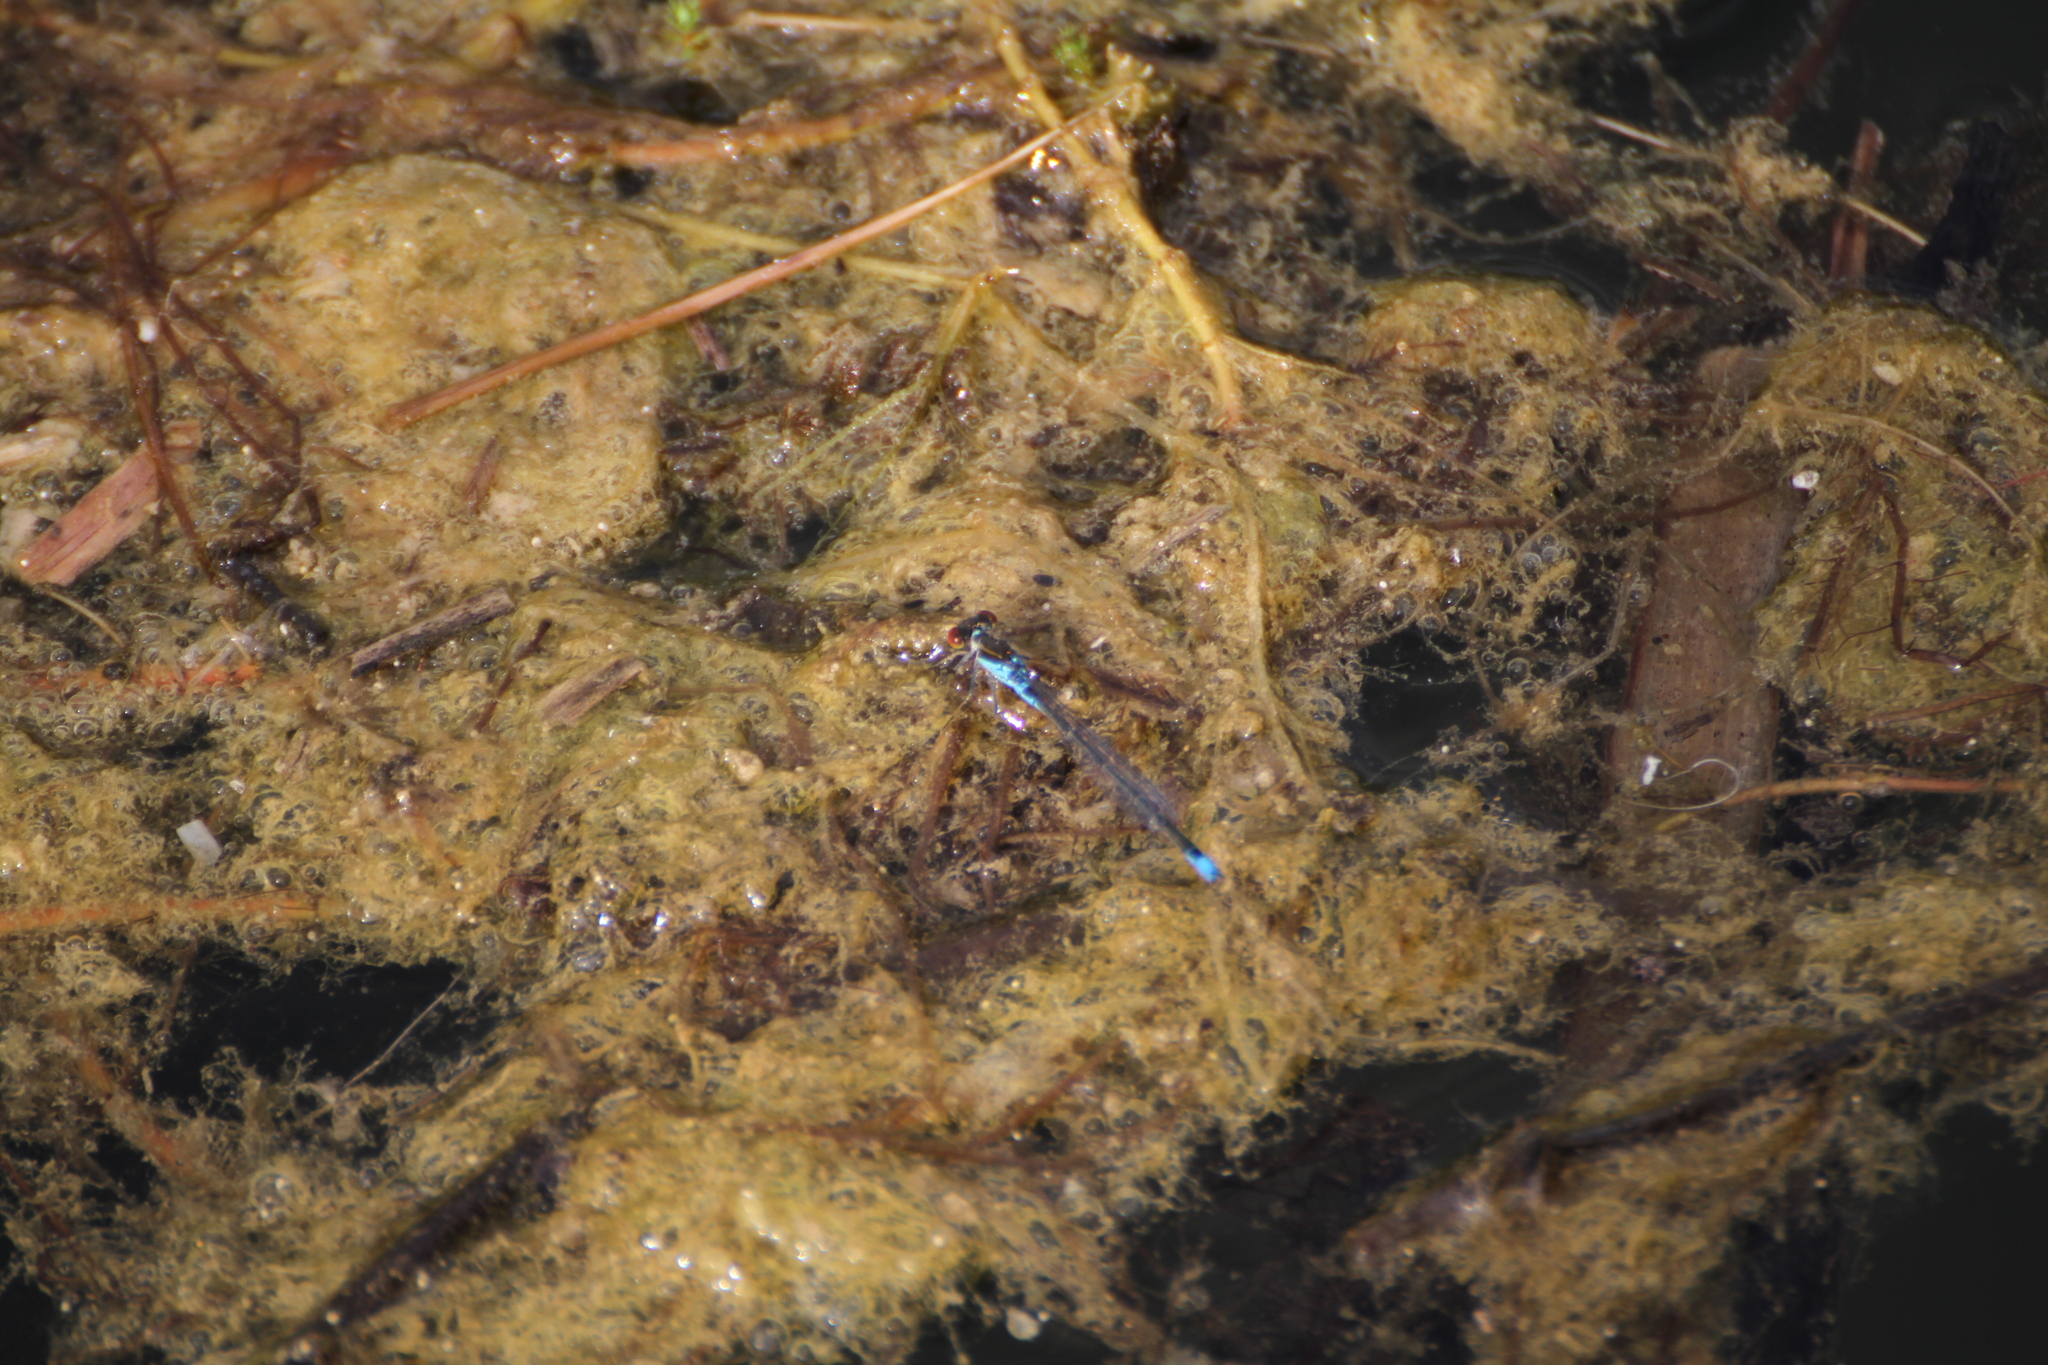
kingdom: Animalia
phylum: Arthropoda
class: Insecta
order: Odonata
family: Coenagrionidae
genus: Erythromma
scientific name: Erythromma viridulum
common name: Small red-eyed damselfly
